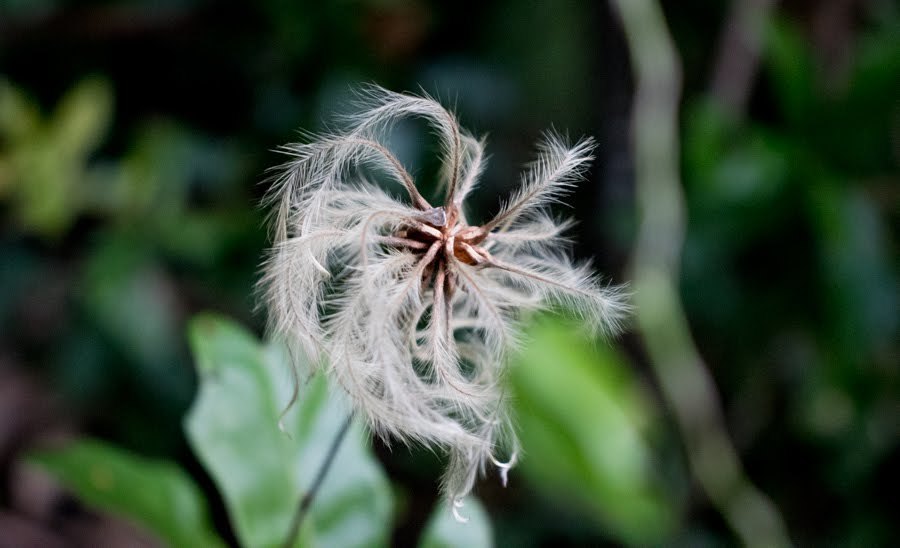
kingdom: Plantae
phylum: Tracheophyta
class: Magnoliopsida
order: Ranunculales
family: Ranunculaceae
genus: Clematis
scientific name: Clematis reticulata
